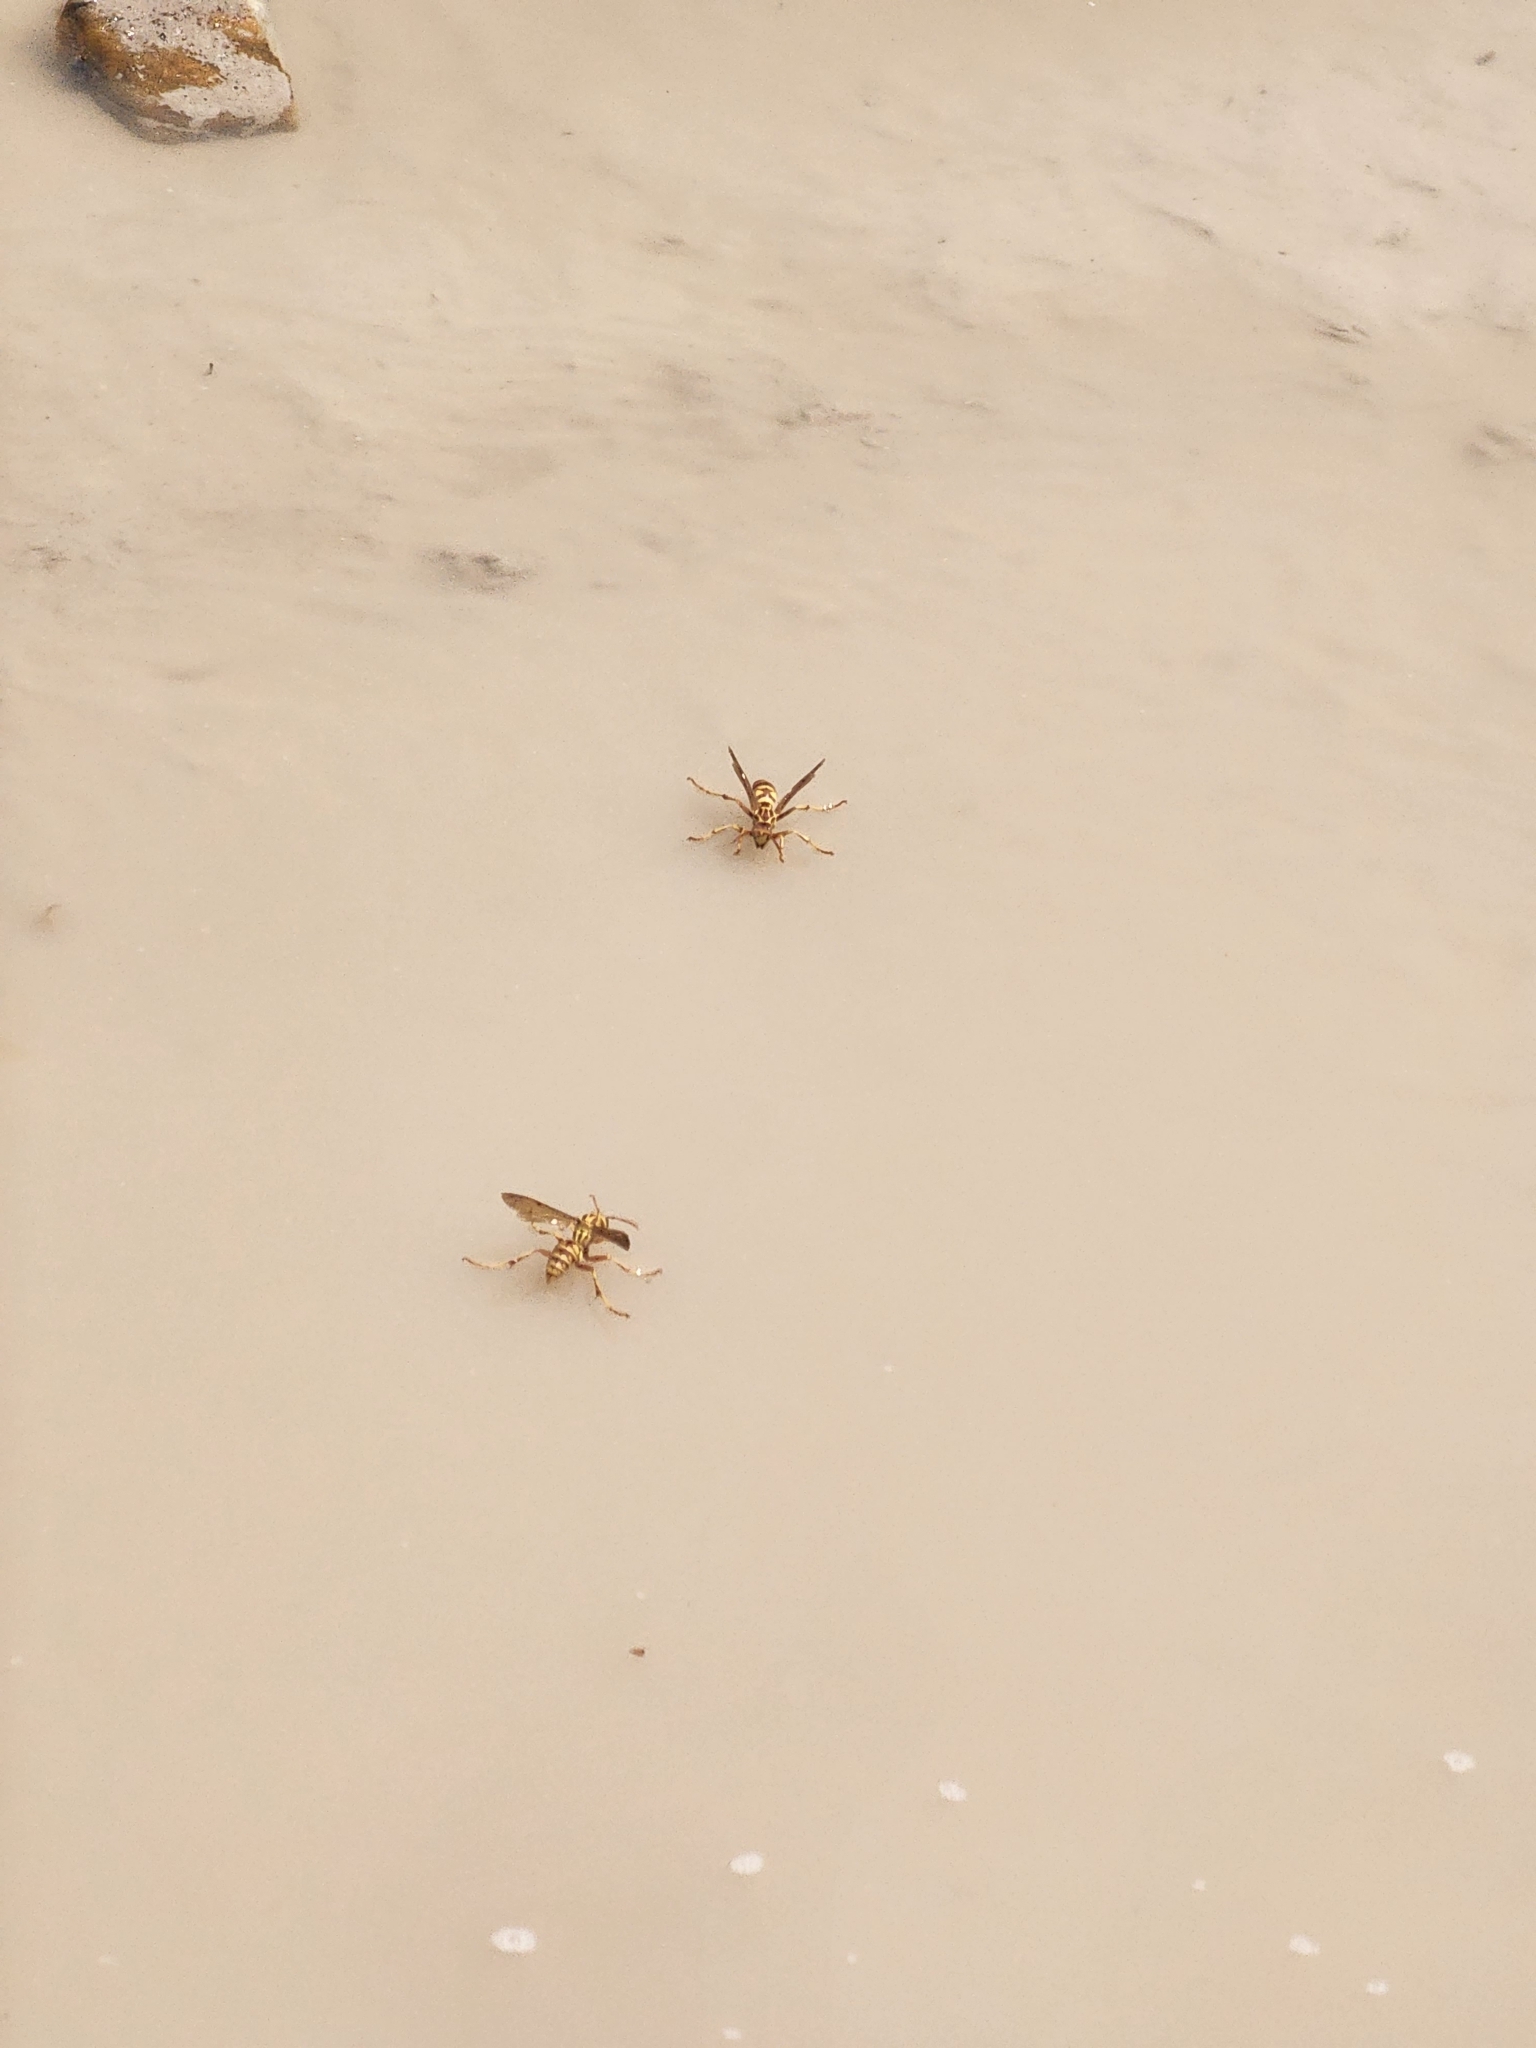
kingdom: Animalia
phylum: Arthropoda
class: Insecta
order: Hymenoptera
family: Eumenidae
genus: Polistes
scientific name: Polistes apachus
